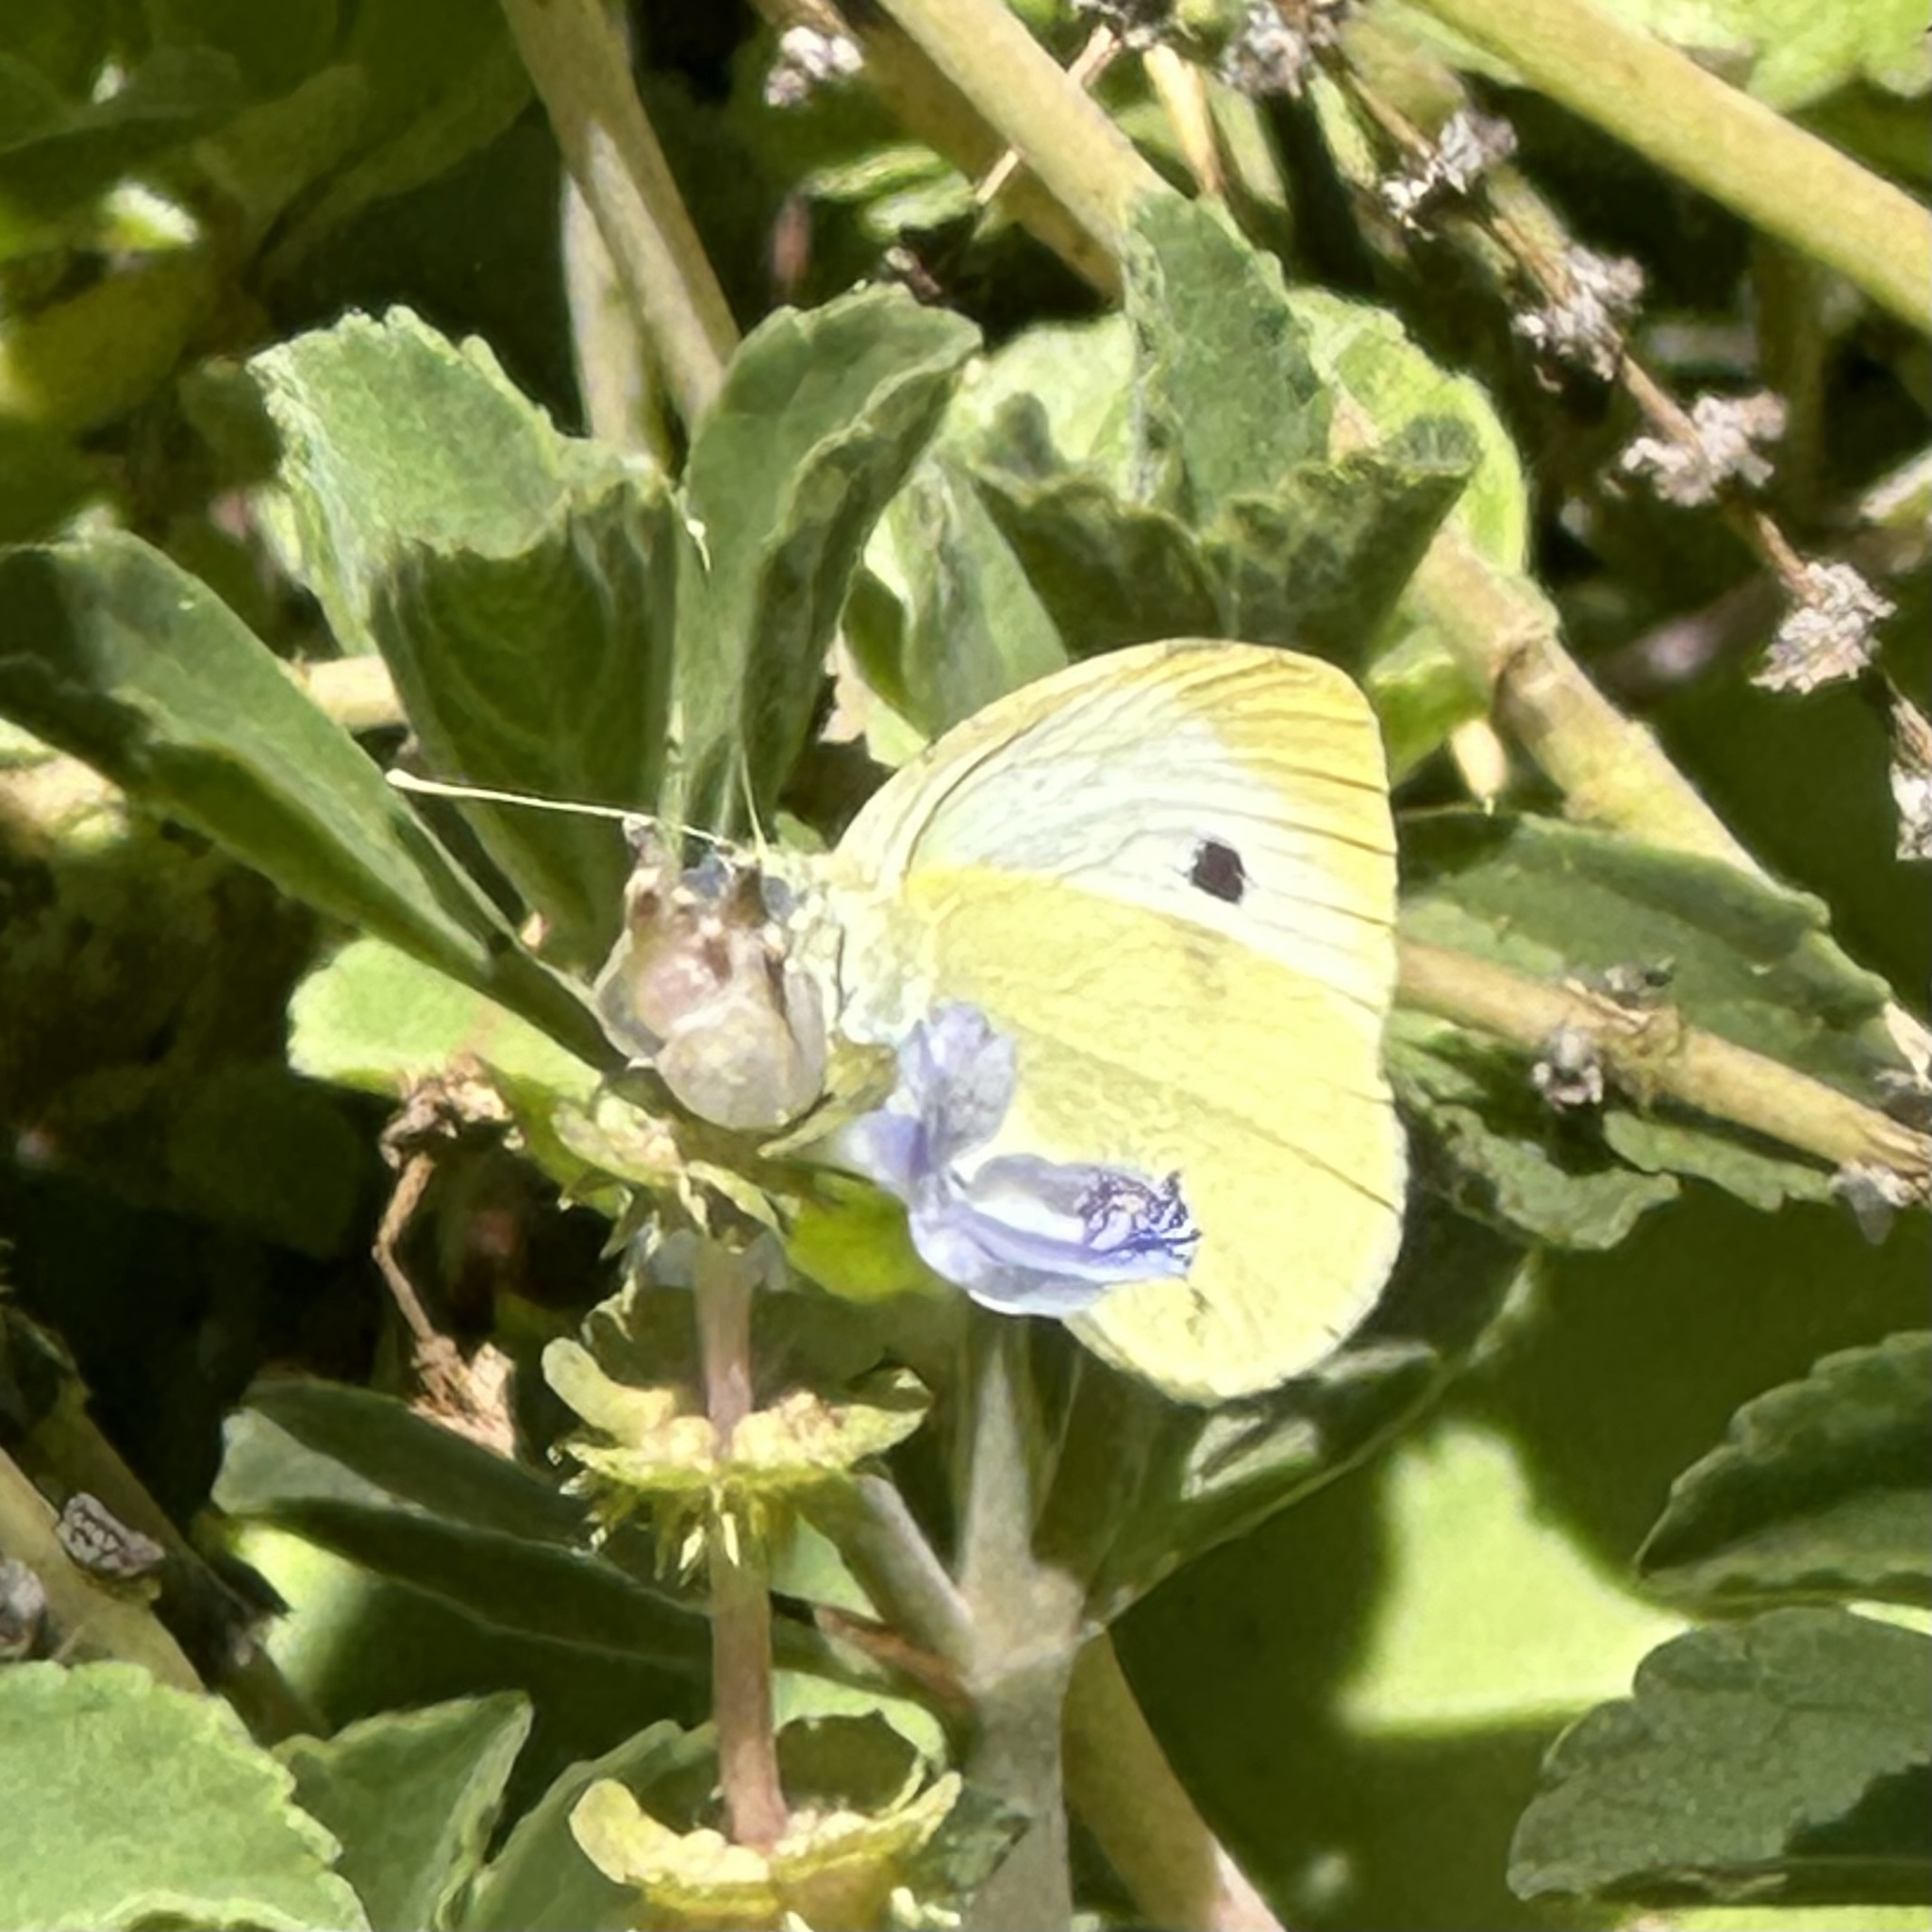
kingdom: Animalia
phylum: Arthropoda
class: Insecta
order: Lepidoptera
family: Pieridae
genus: Pieris
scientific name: Pieris rapae
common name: Small white
